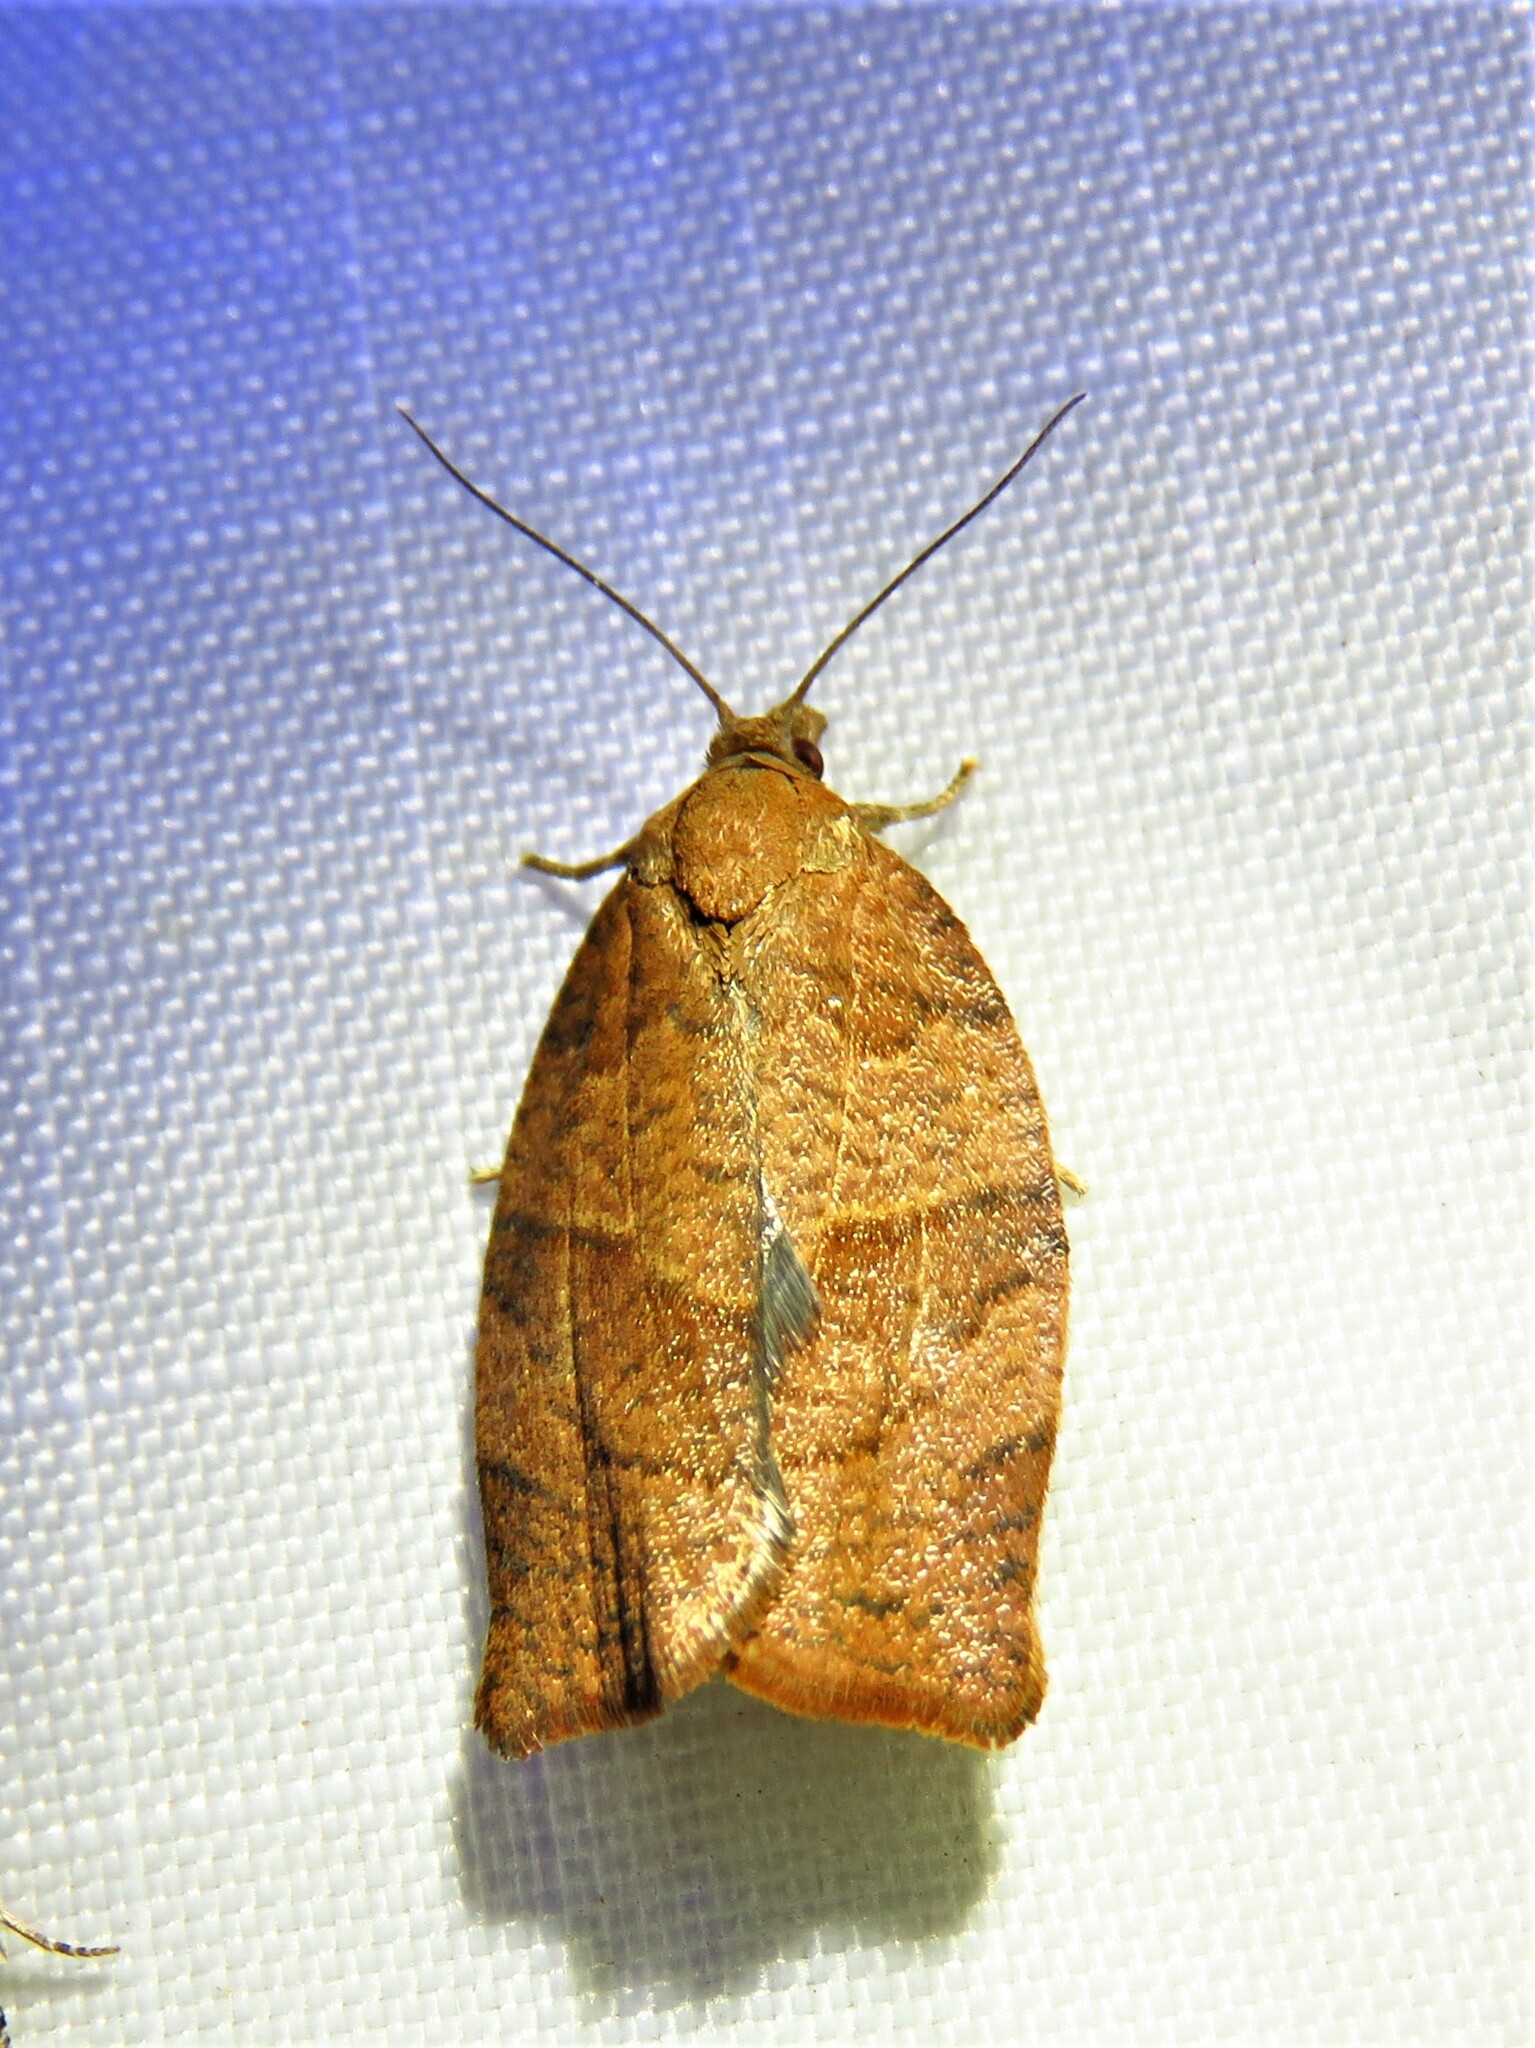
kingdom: Animalia
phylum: Arthropoda
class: Insecta
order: Lepidoptera
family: Tortricidae
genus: Pandemis
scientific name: Pandemis heparana
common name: Dark fruit-tree tortrix
